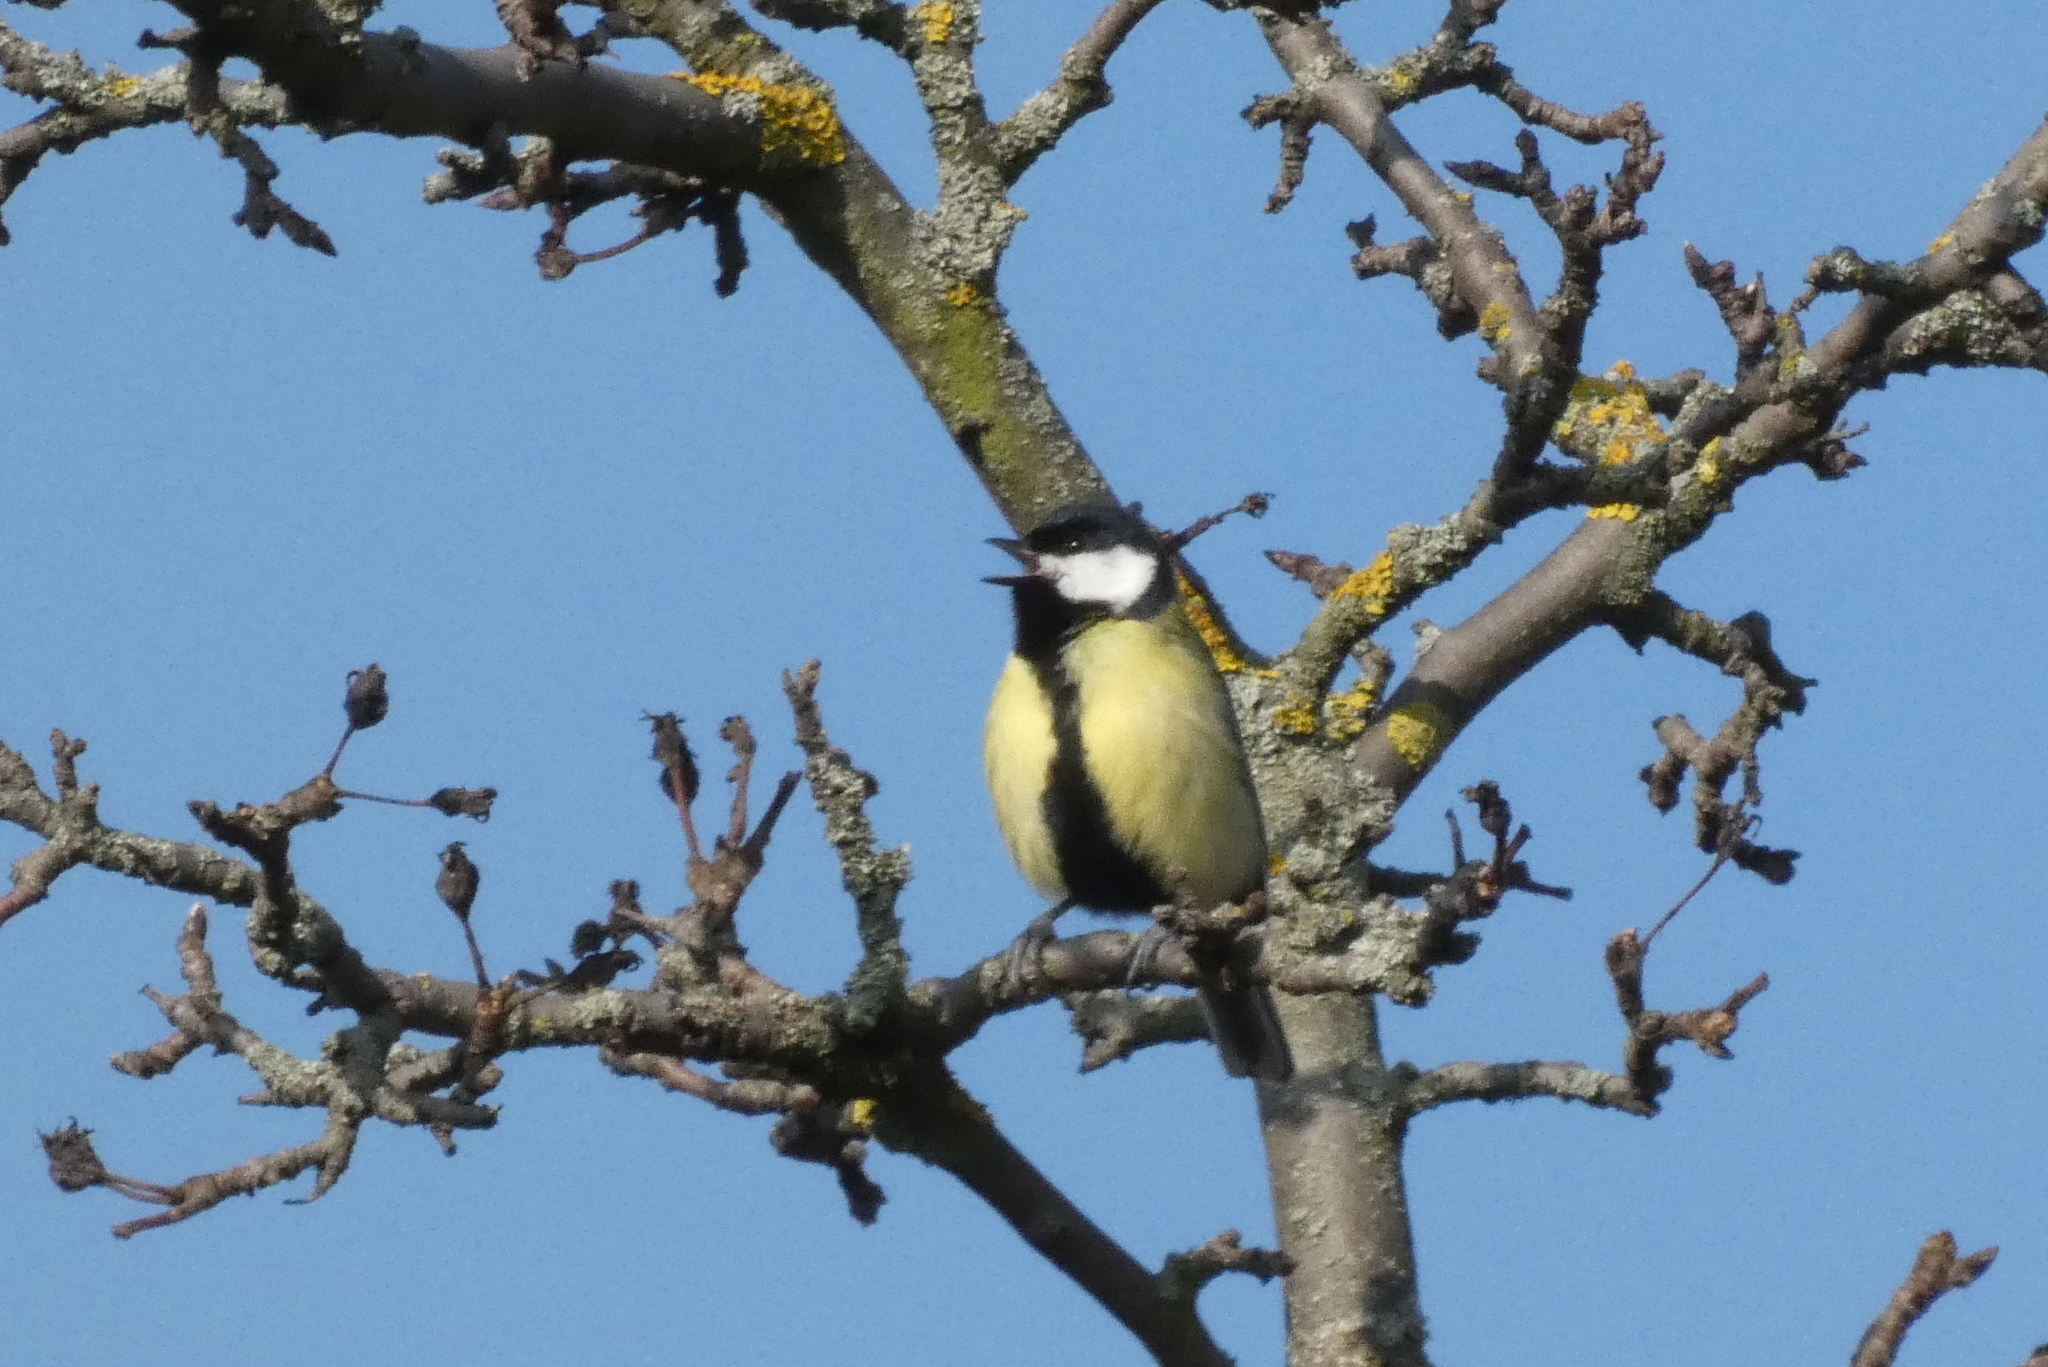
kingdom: Animalia
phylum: Chordata
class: Aves
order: Passeriformes
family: Paridae
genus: Parus
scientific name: Parus major
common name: Great tit
